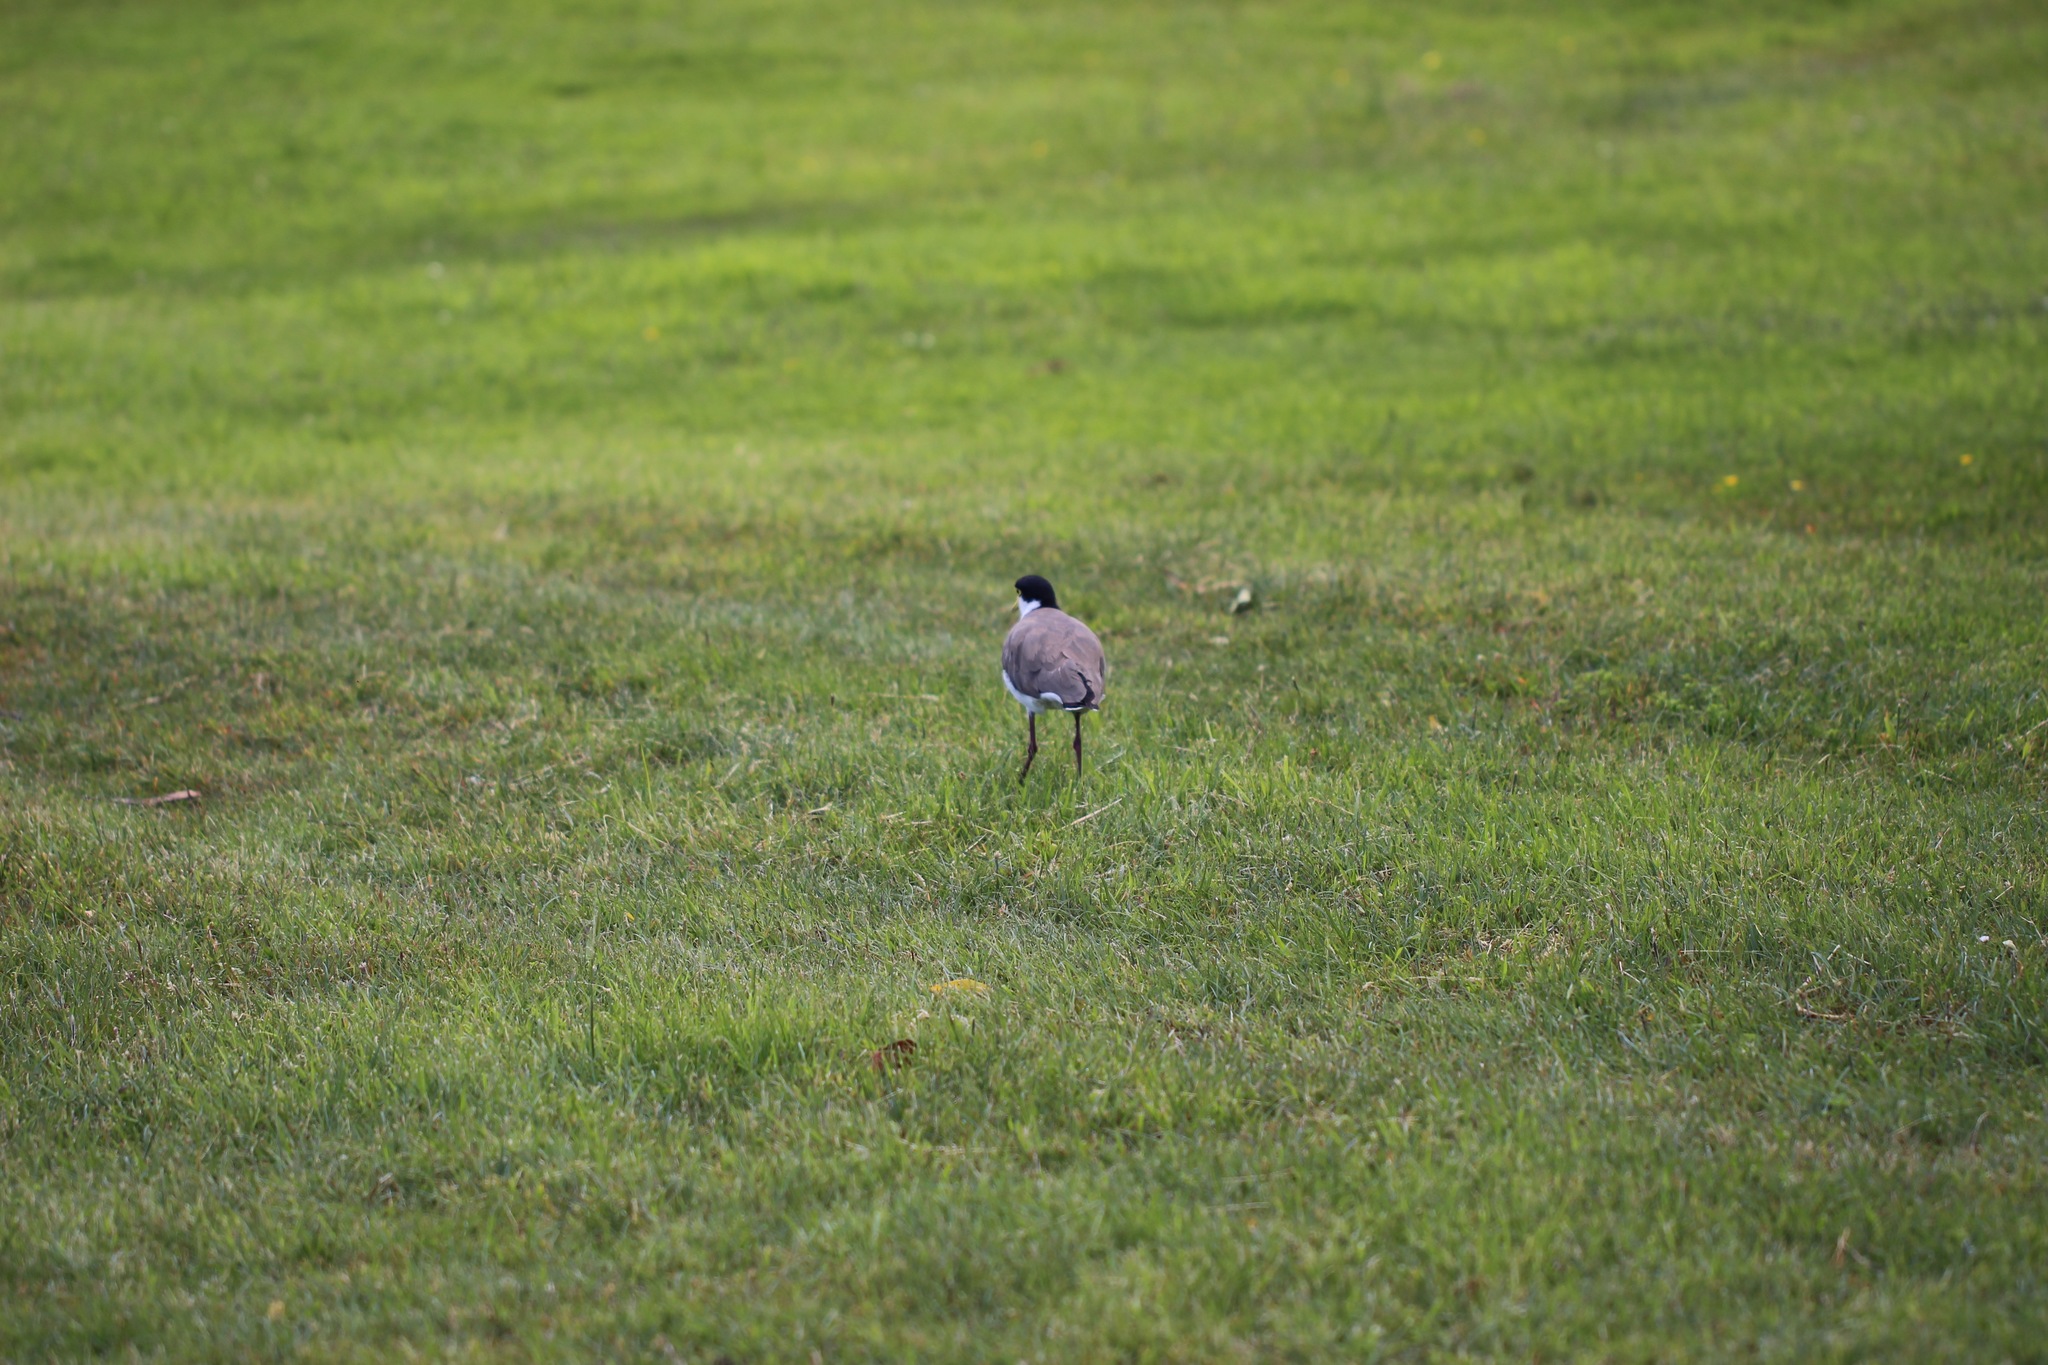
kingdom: Animalia
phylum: Chordata
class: Aves
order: Charadriiformes
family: Charadriidae
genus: Vanellus
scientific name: Vanellus miles
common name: Masked lapwing
